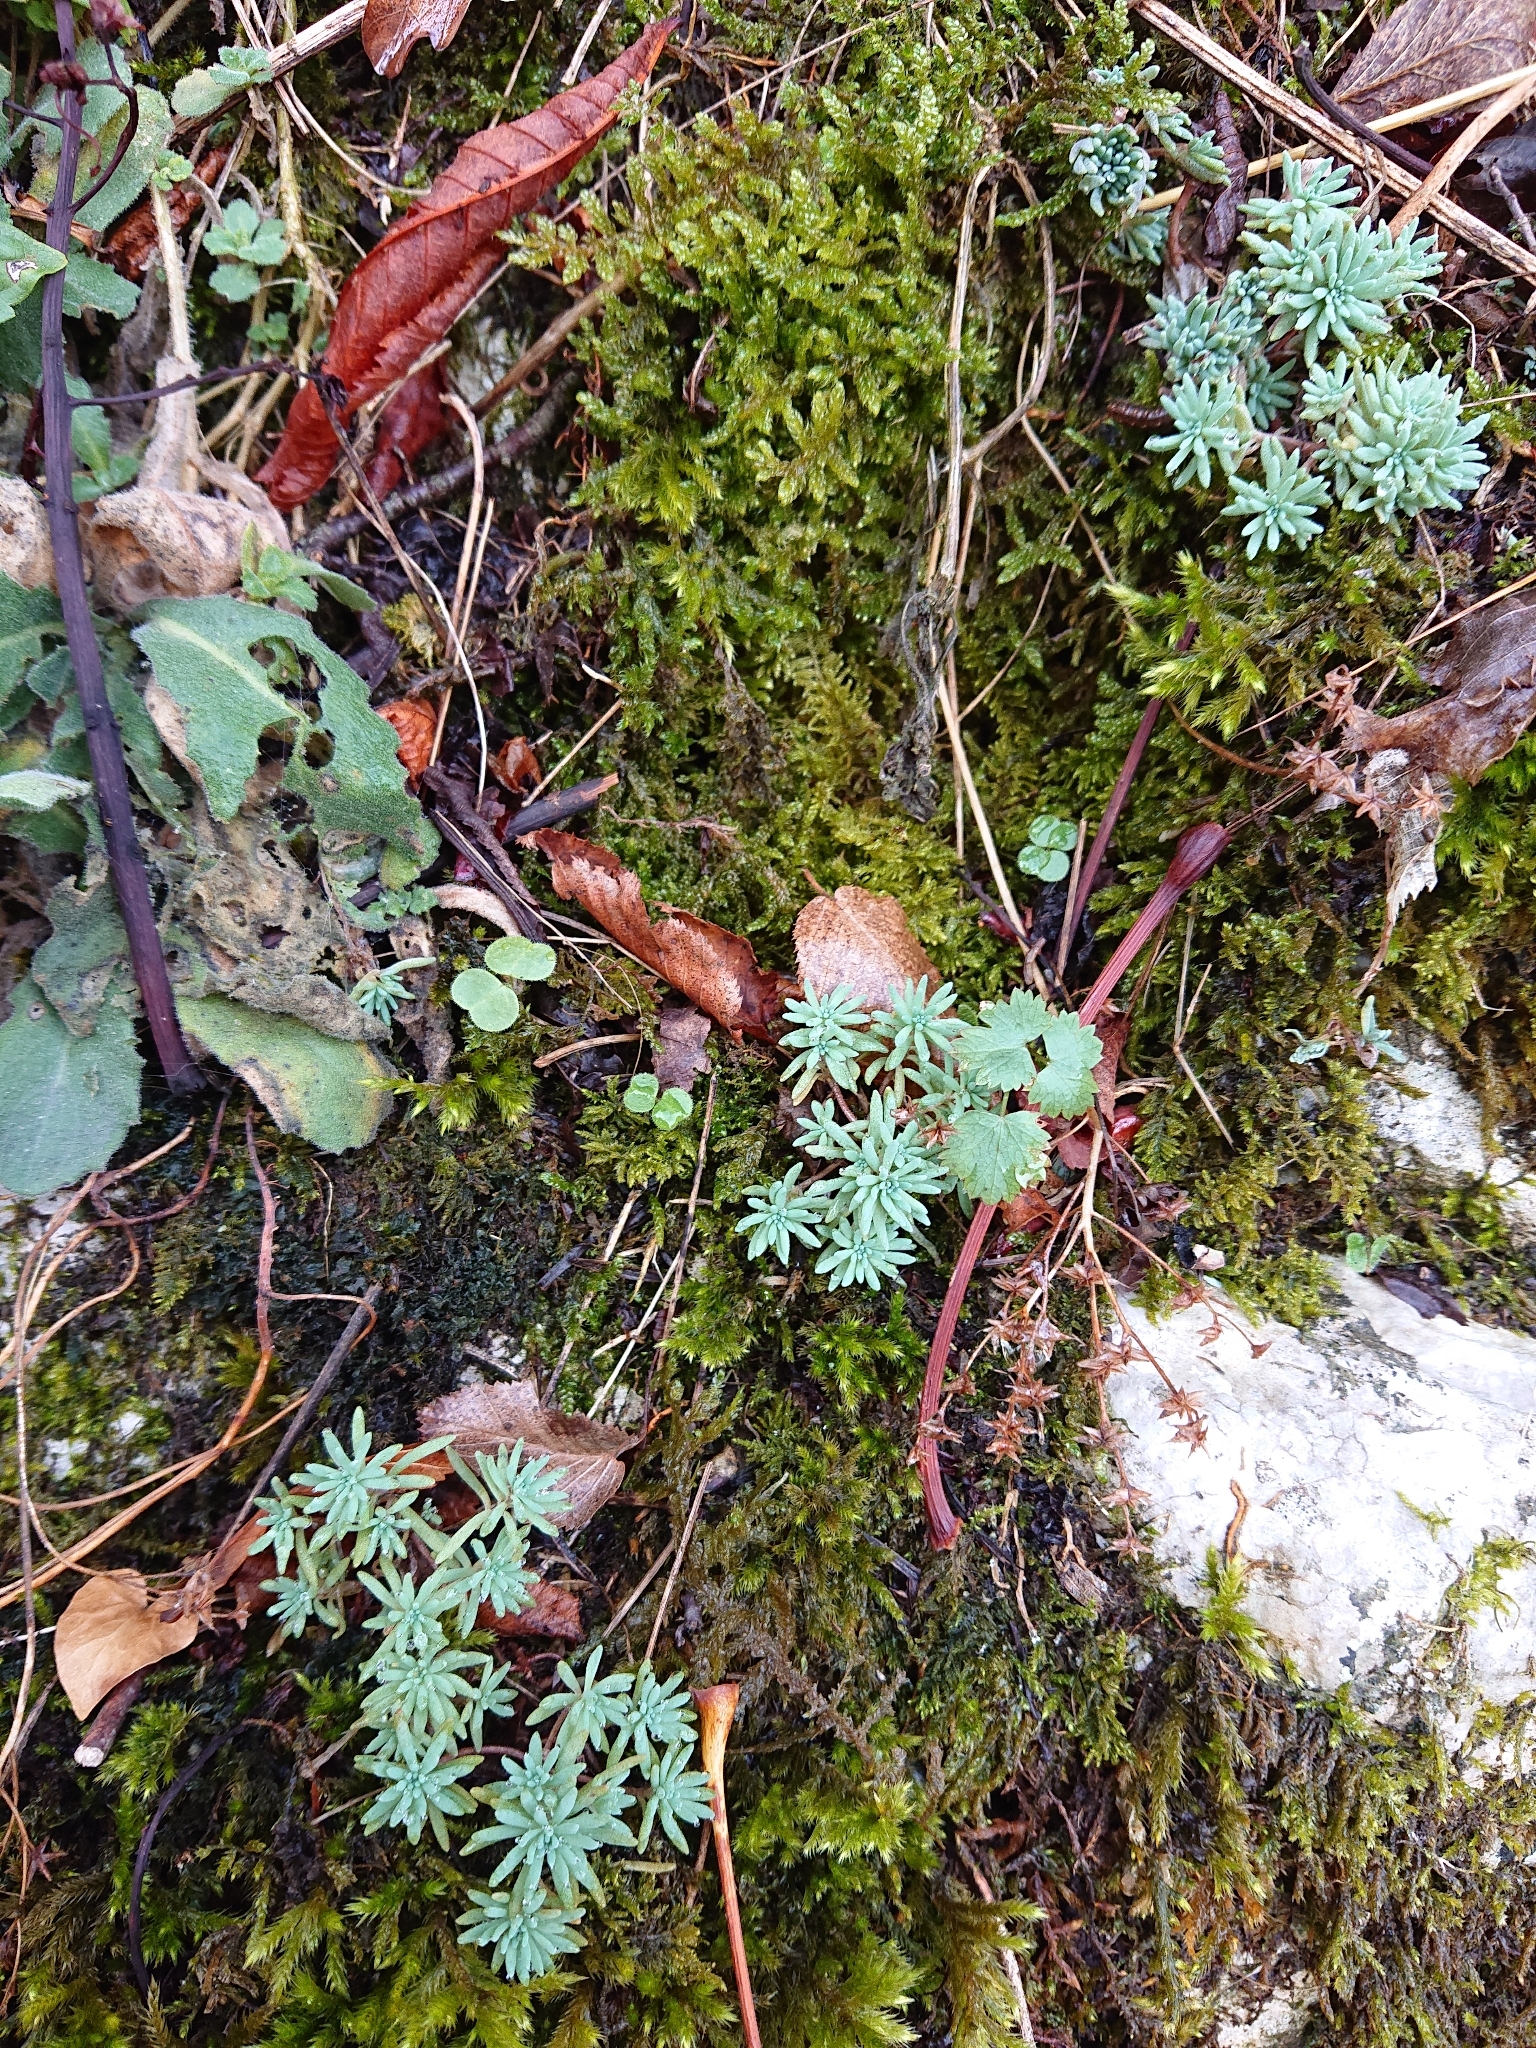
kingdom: Plantae
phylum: Tracheophyta
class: Magnoliopsida
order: Saxifragales
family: Crassulaceae
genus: Sedum
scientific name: Sedum hispanicum
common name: Spanish stonecrop
